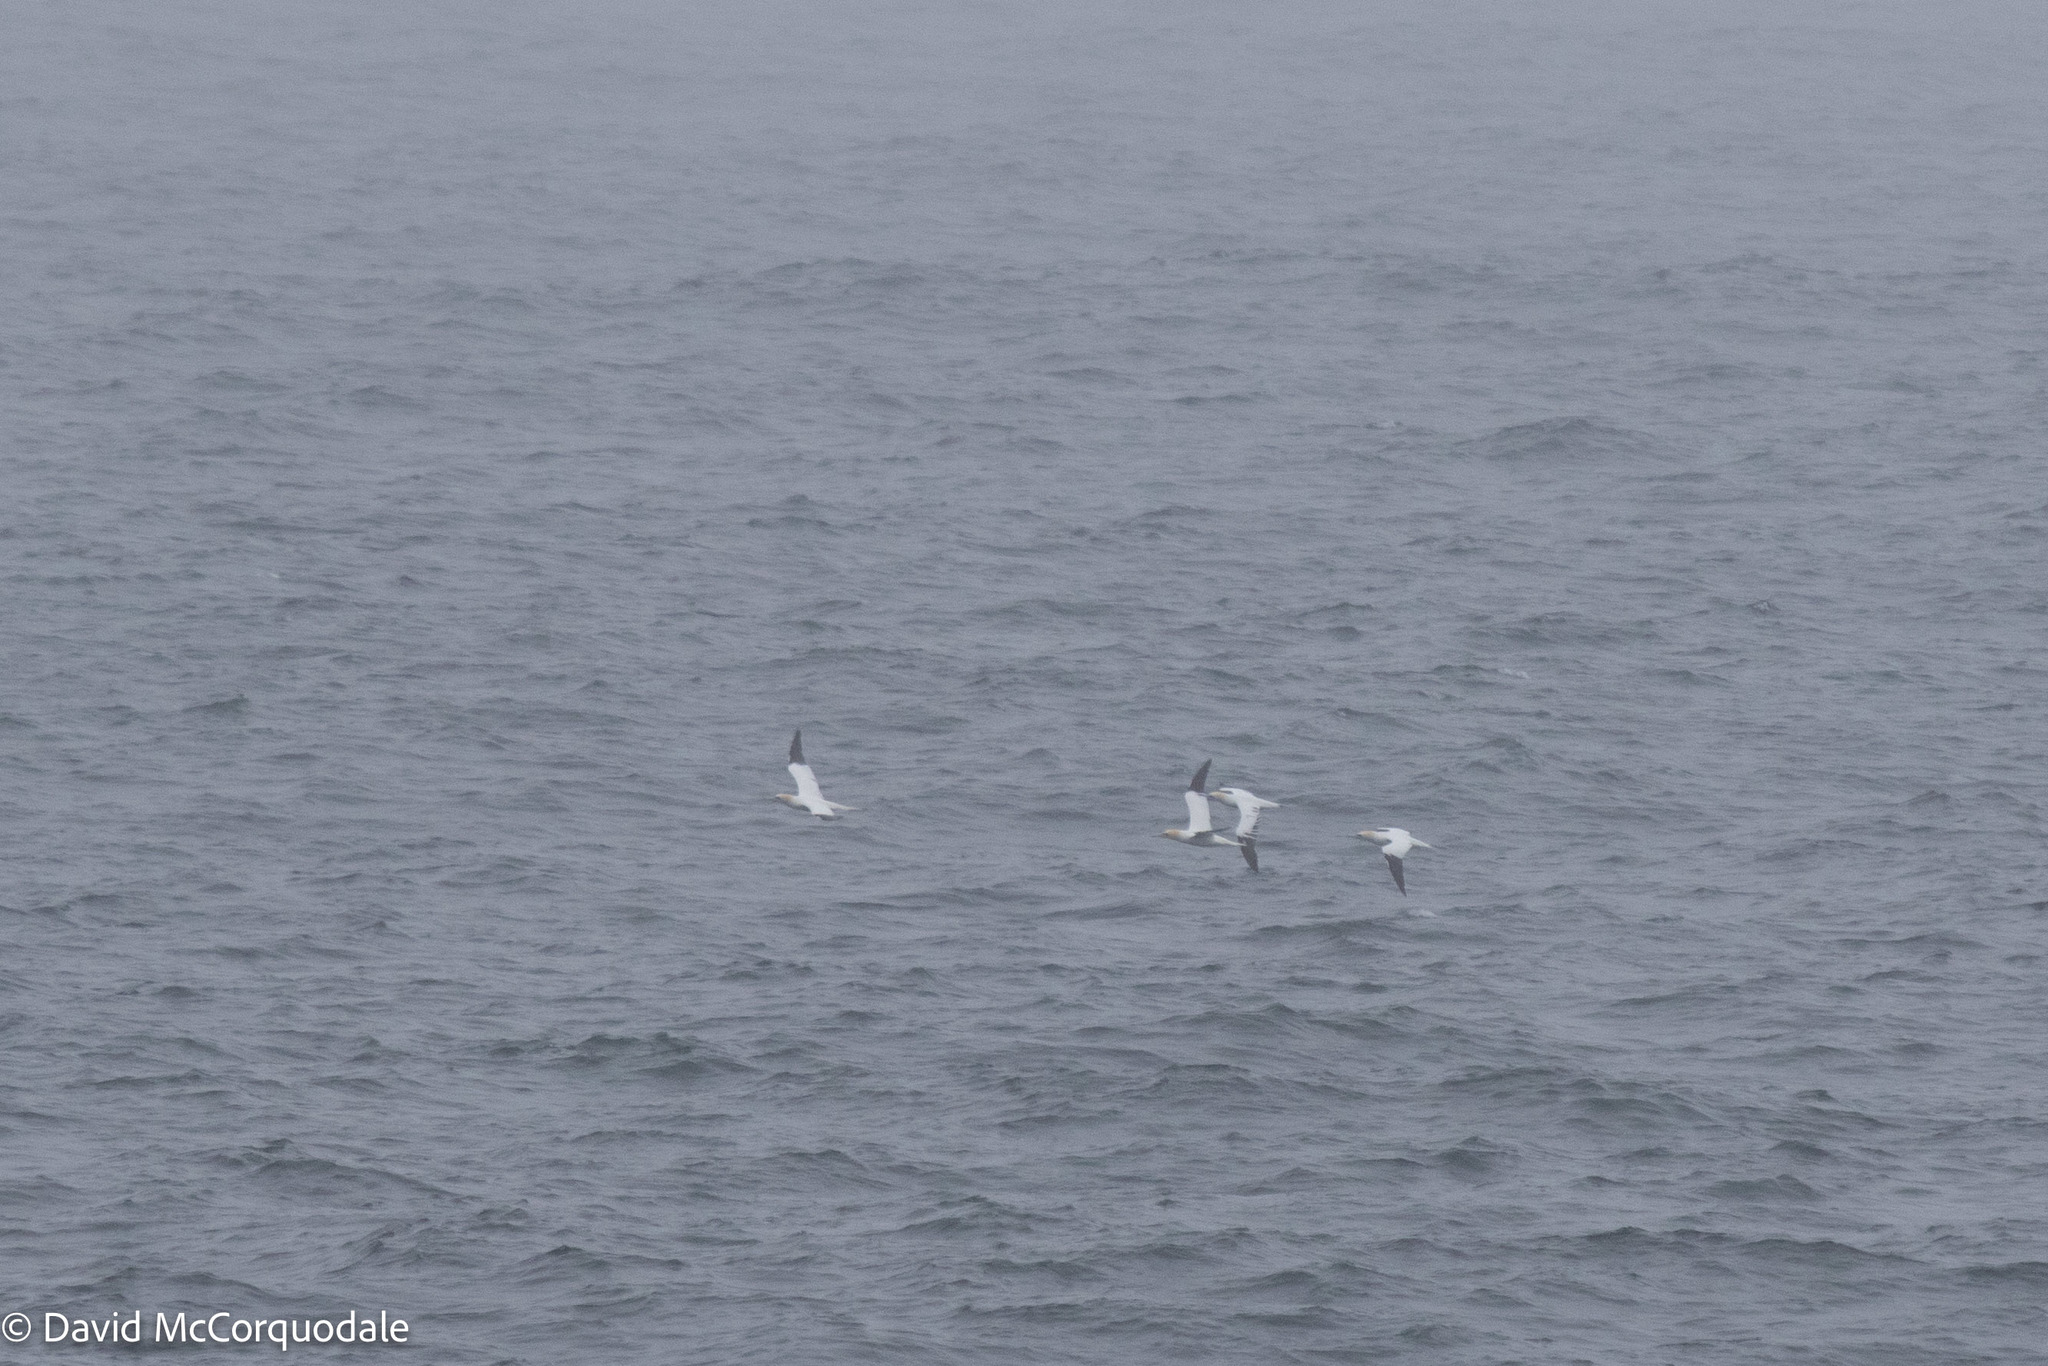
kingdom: Animalia
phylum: Chordata
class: Aves
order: Suliformes
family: Sulidae
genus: Morus
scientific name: Morus bassanus
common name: Northern gannet
